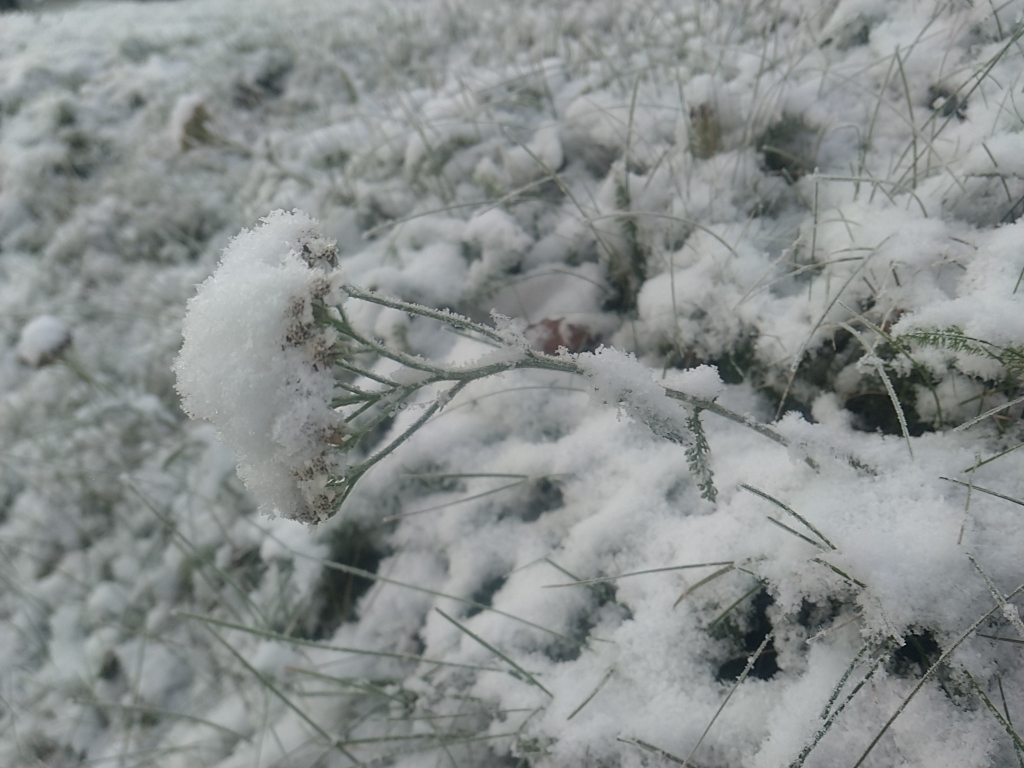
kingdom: Plantae
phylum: Tracheophyta
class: Magnoliopsida
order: Asterales
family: Asteraceae
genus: Achillea
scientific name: Achillea millefolium
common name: Yarrow
